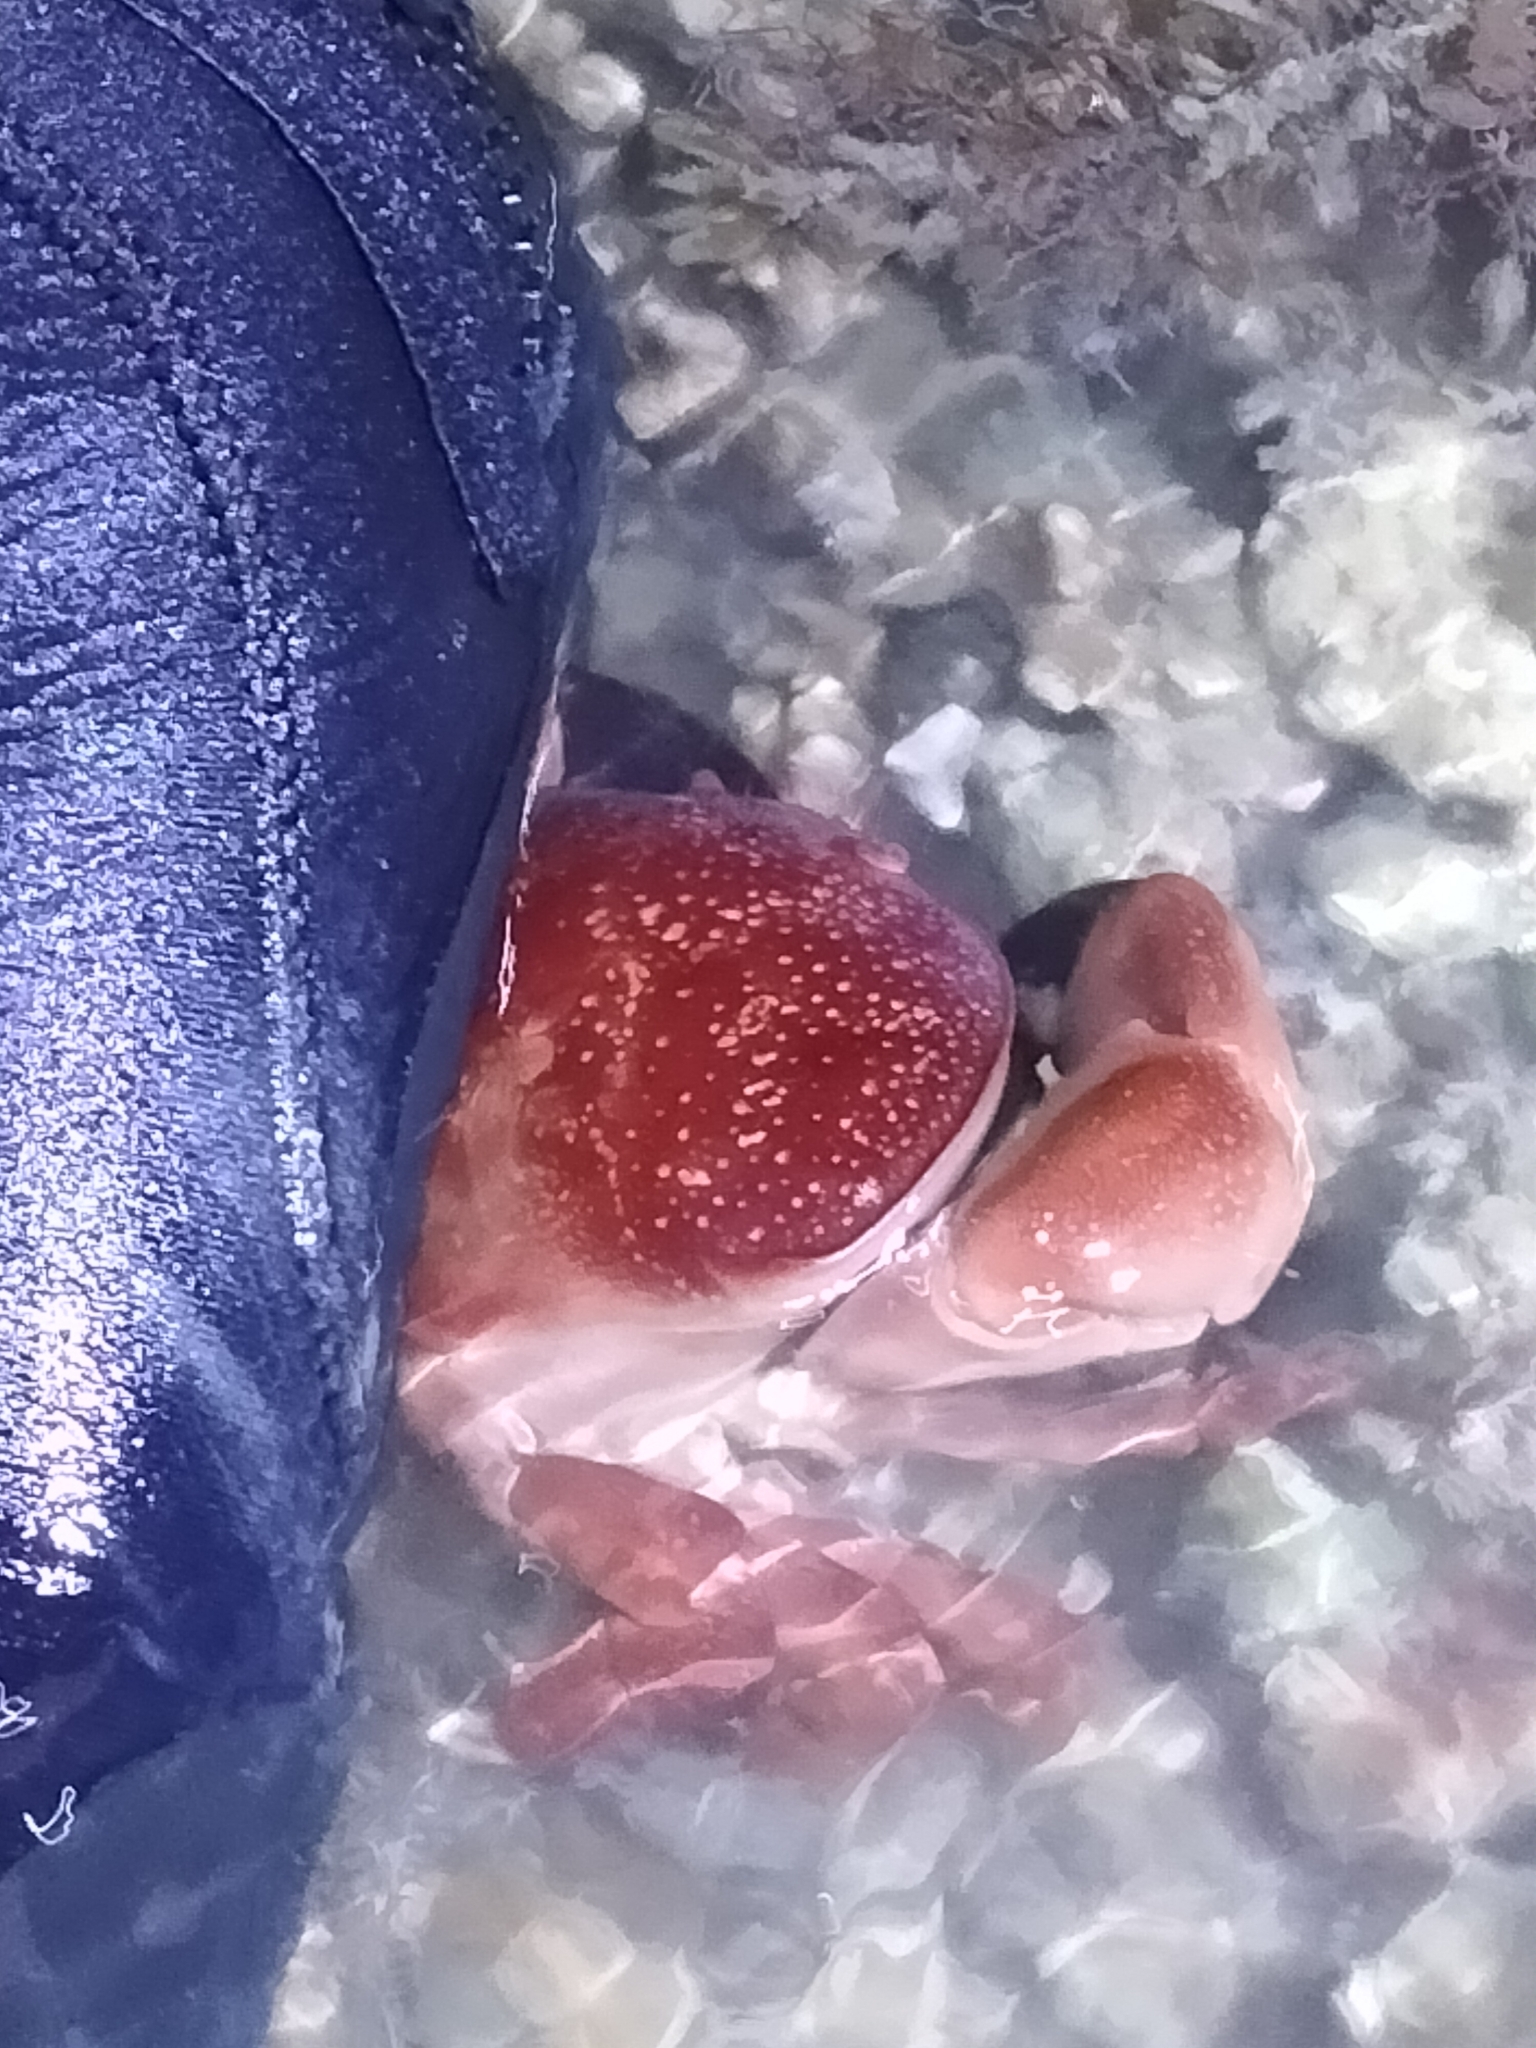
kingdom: Animalia
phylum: Arthropoda
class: Malacostraca
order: Decapoda
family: Xanthidae
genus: Atergatis
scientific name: Atergatis integerrimus
